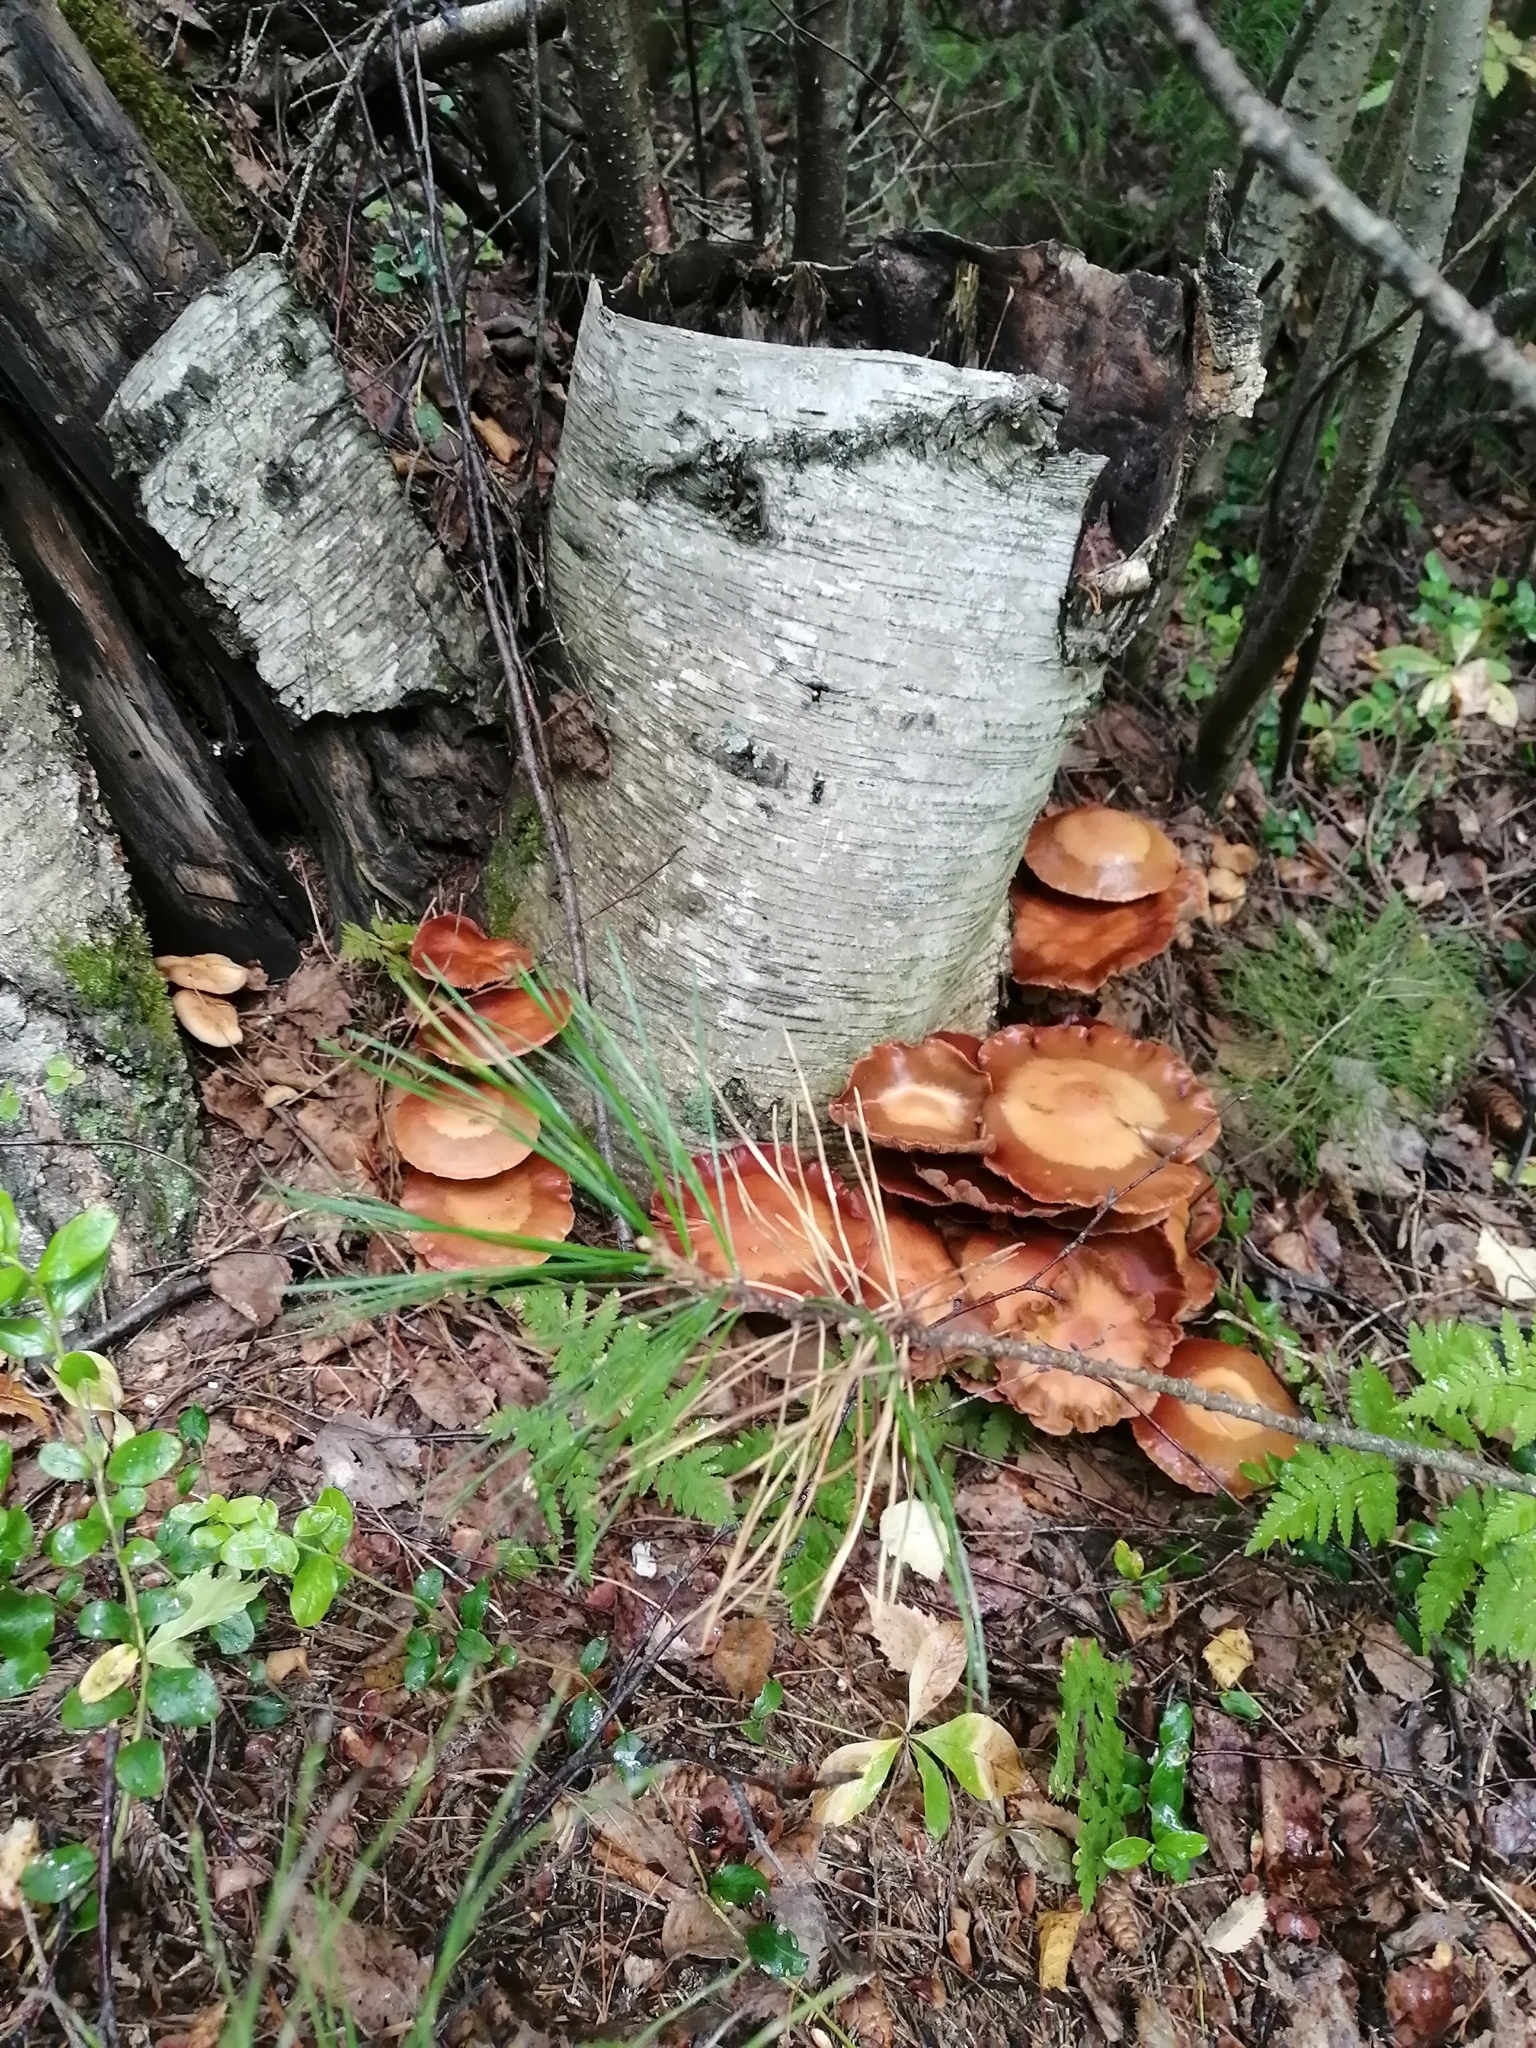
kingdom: Fungi
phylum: Basidiomycota
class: Agaricomycetes
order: Agaricales
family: Strophariaceae
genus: Kuehneromyces
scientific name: Kuehneromyces mutabilis
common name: Sheathed woodtuft
